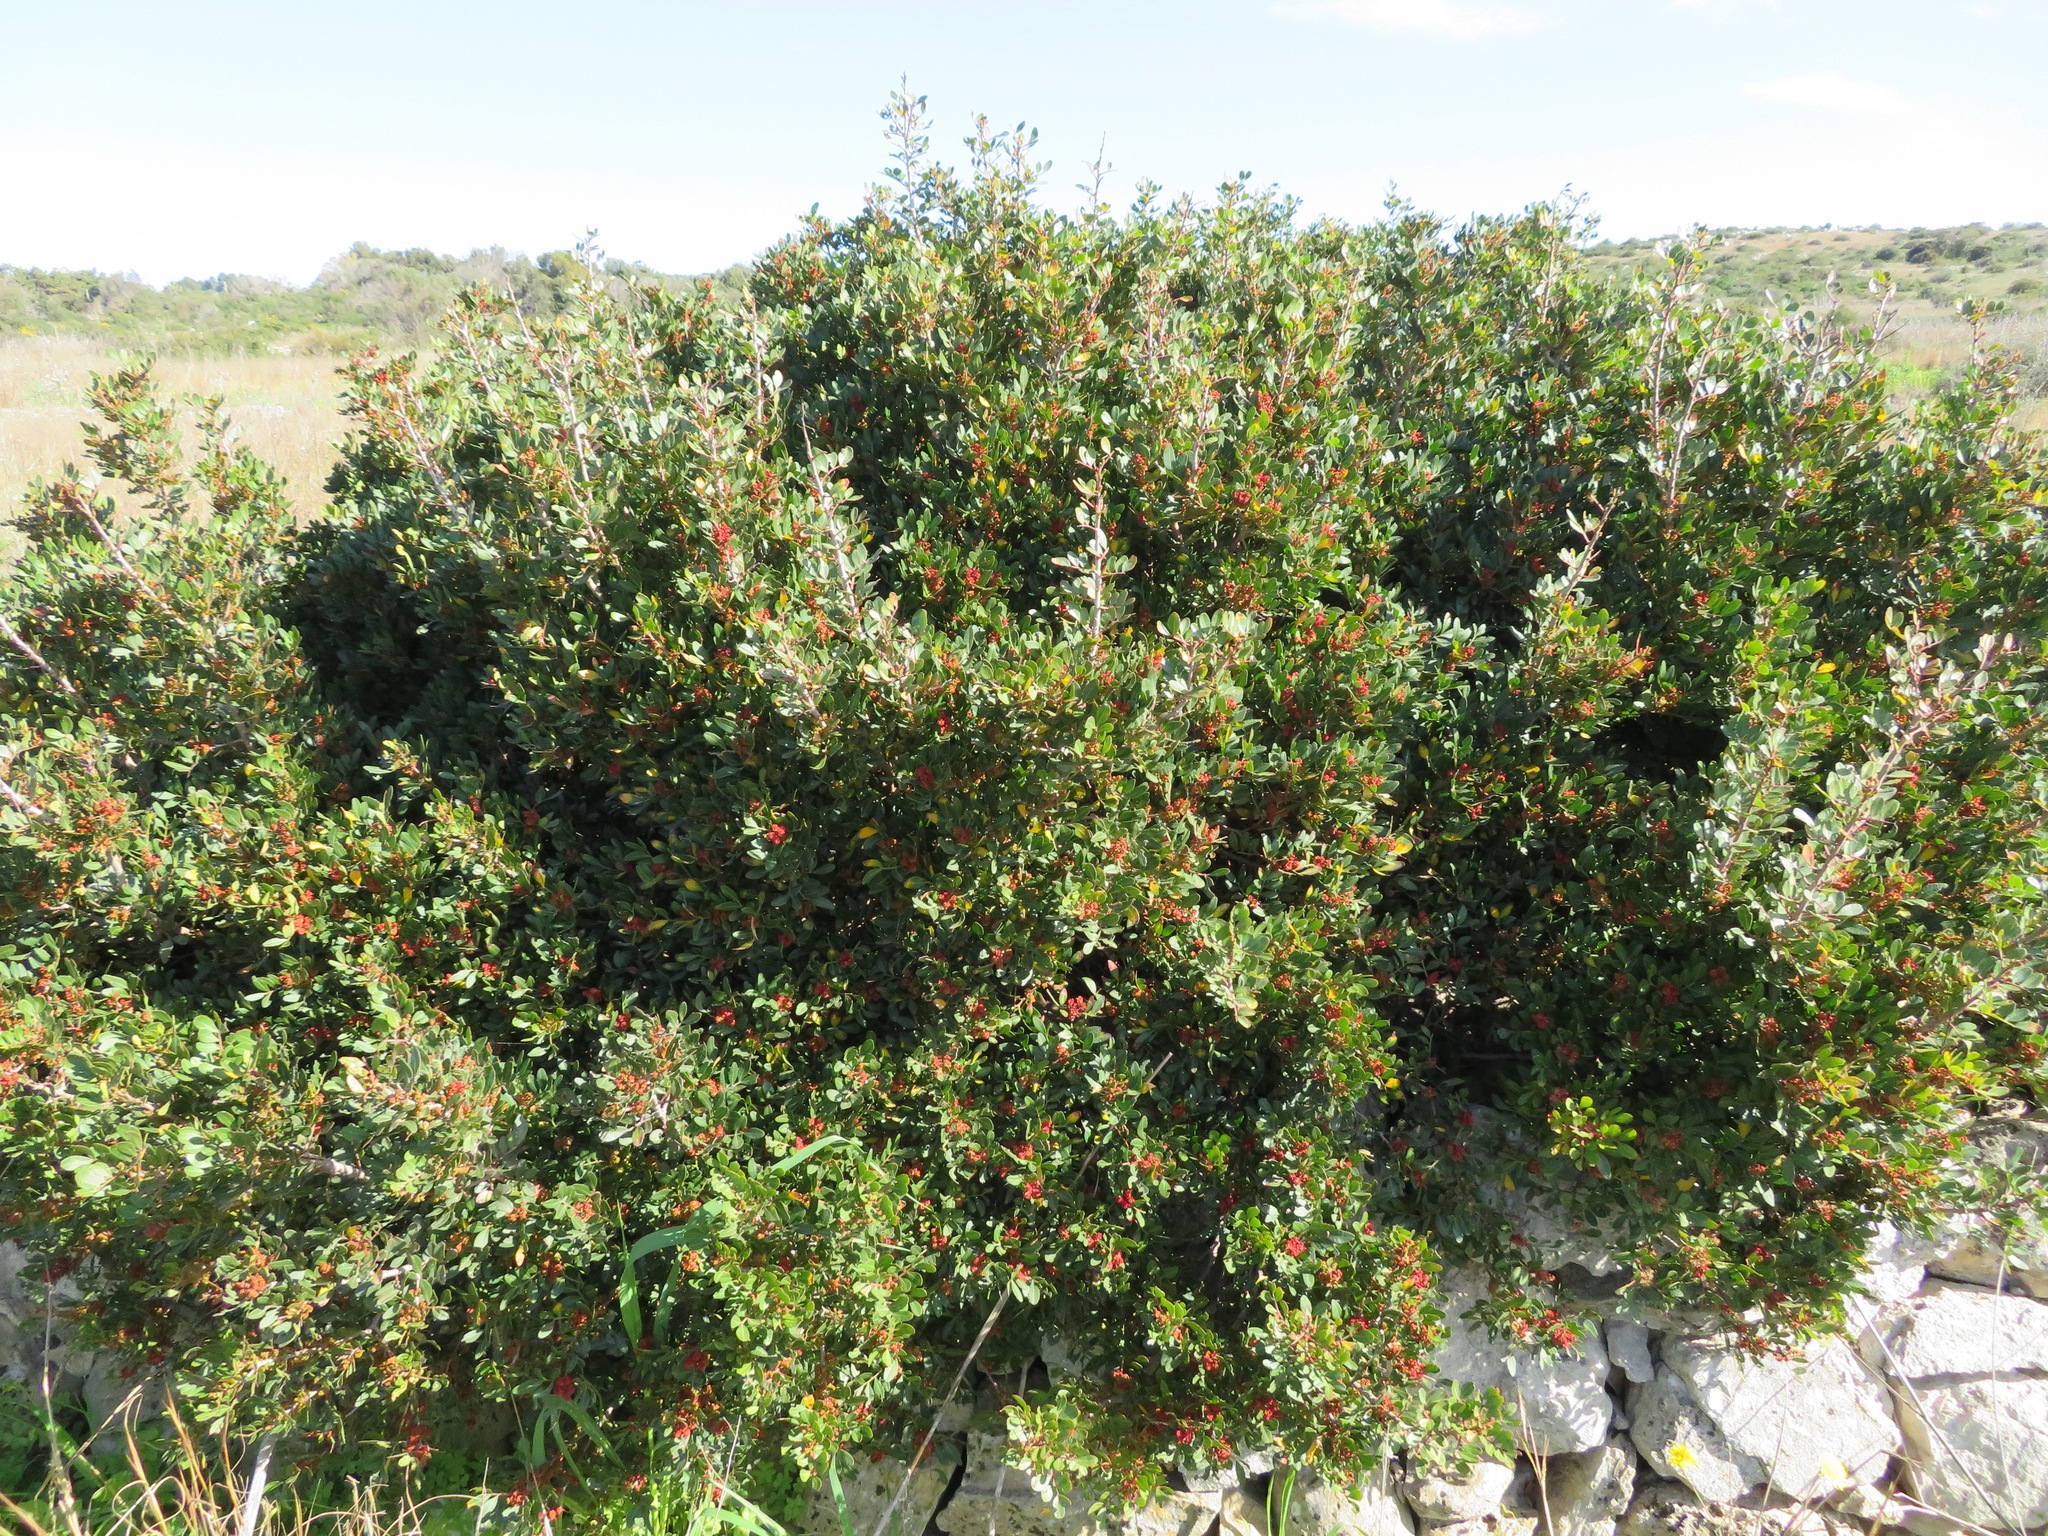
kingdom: Plantae
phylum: Tracheophyta
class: Magnoliopsida
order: Sapindales
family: Anacardiaceae
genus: Pistacia
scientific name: Pistacia lentiscus
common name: Lentisk
